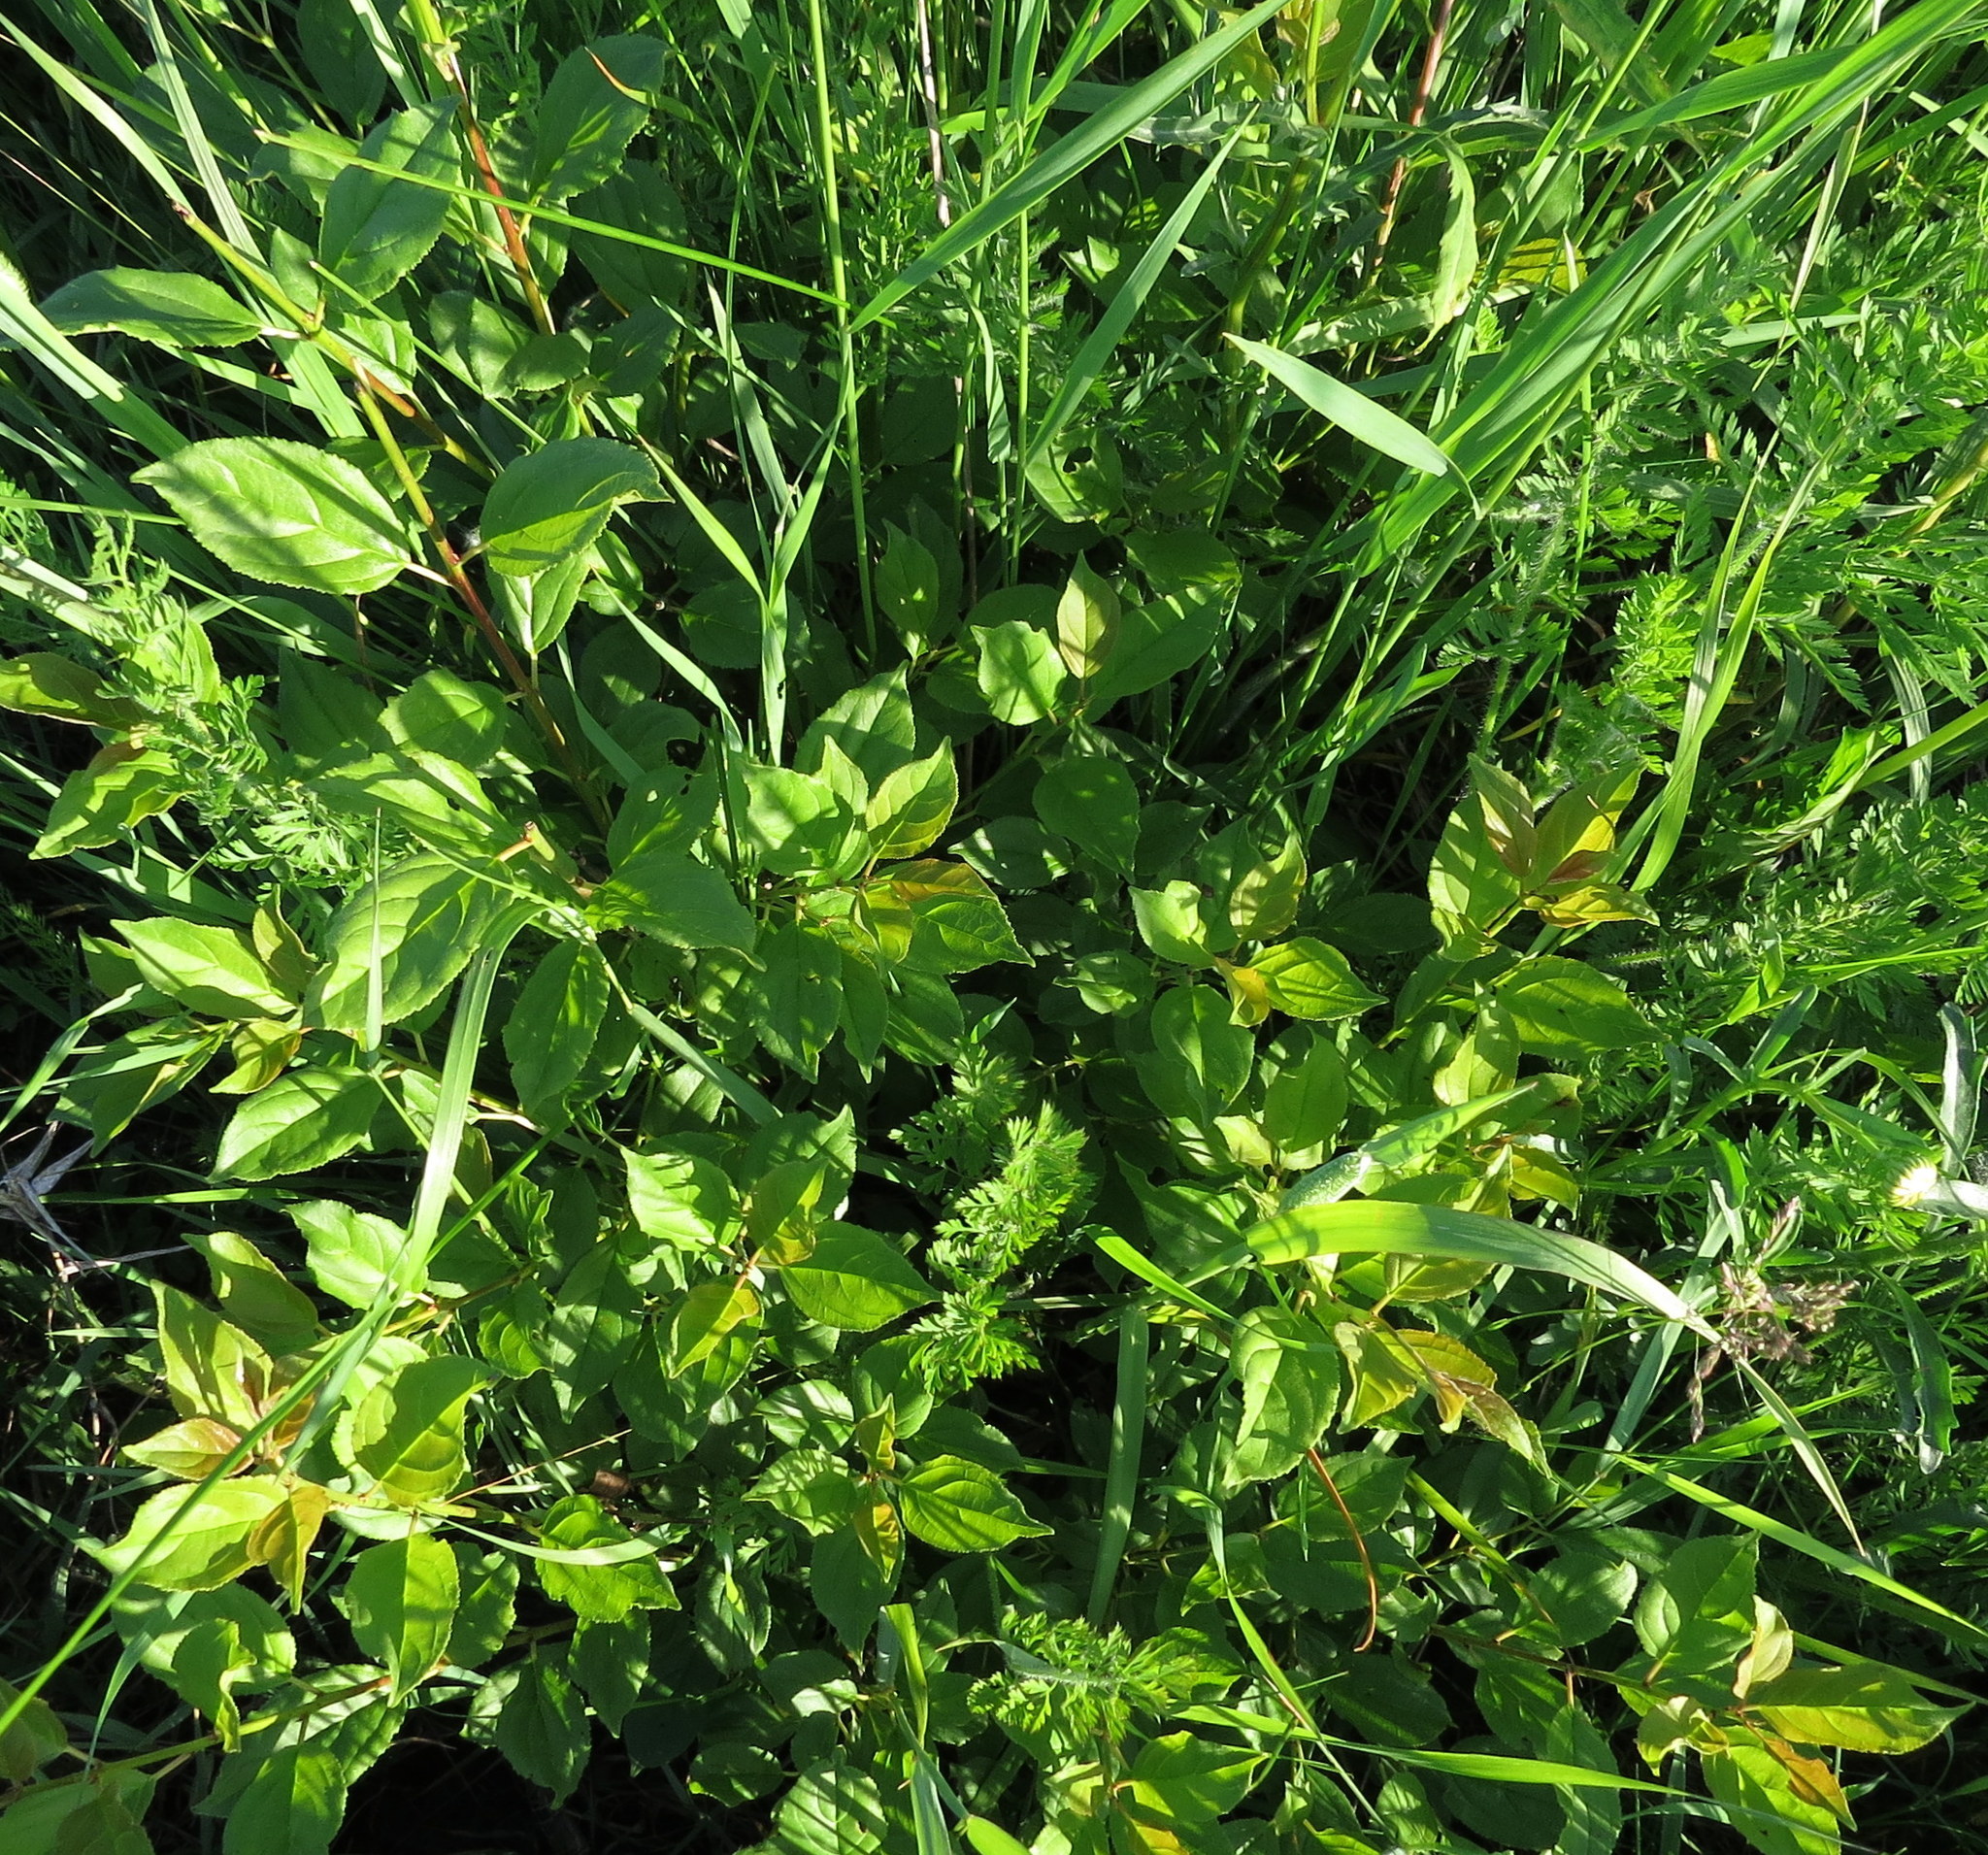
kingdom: Plantae
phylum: Tracheophyta
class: Magnoliopsida
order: Rosales
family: Rhamnaceae
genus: Rhamnus
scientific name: Rhamnus cathartica
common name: Common buckthorn
